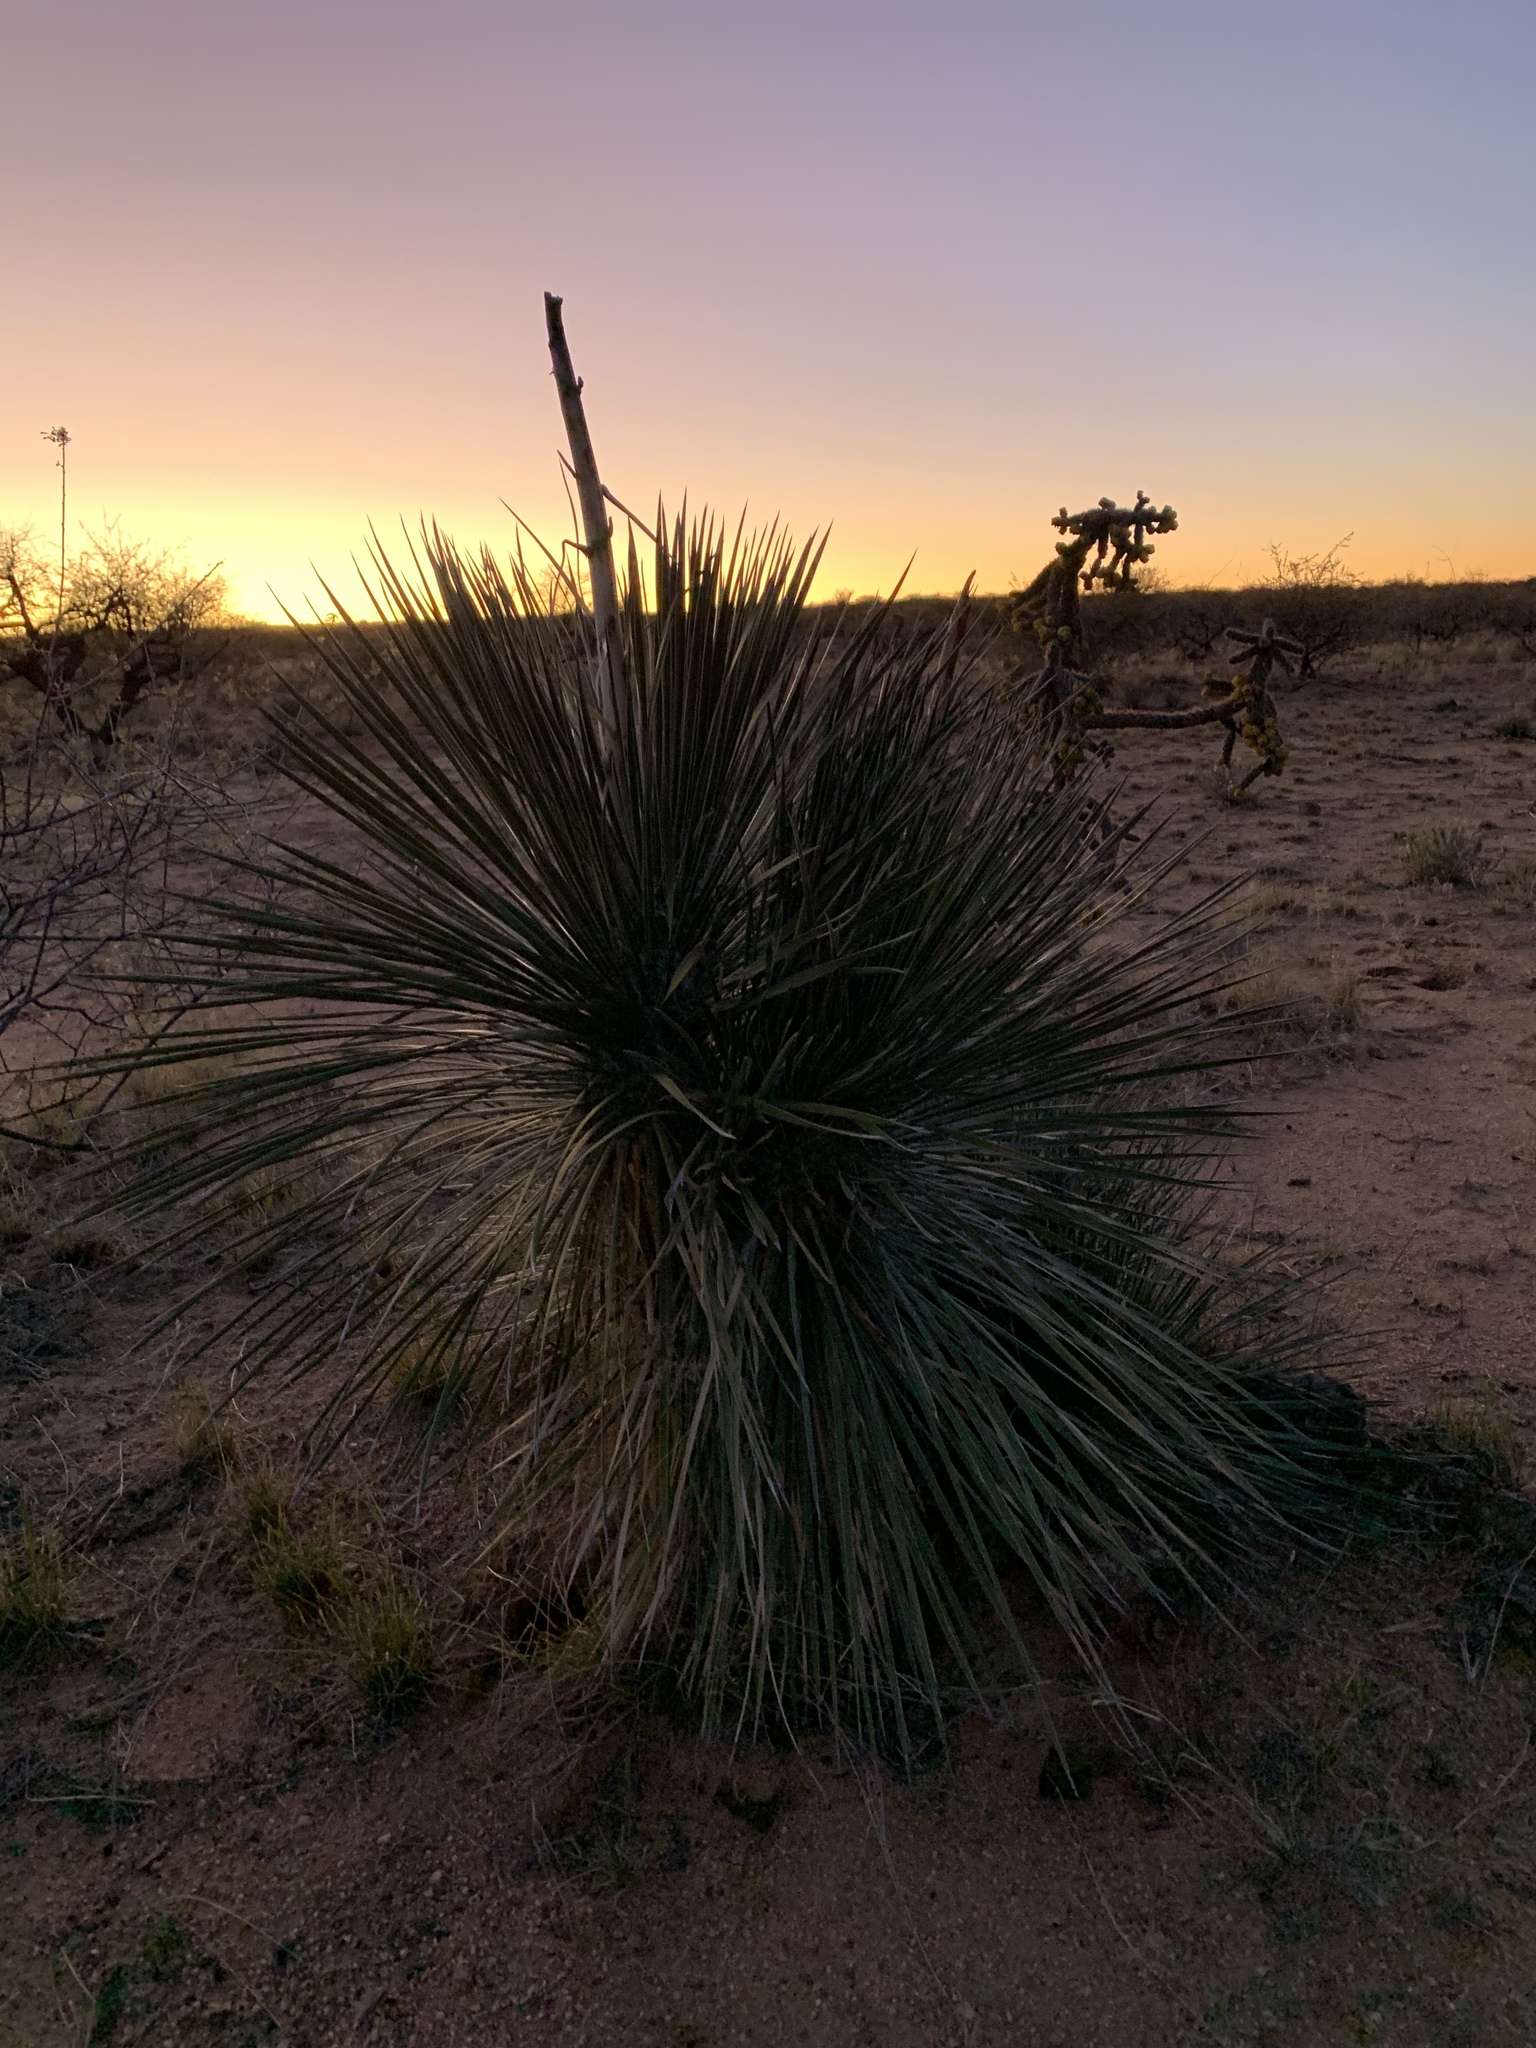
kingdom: Plantae
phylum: Tracheophyta
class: Liliopsida
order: Asparagales
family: Asparagaceae
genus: Yucca
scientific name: Yucca elata
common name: Palmella
